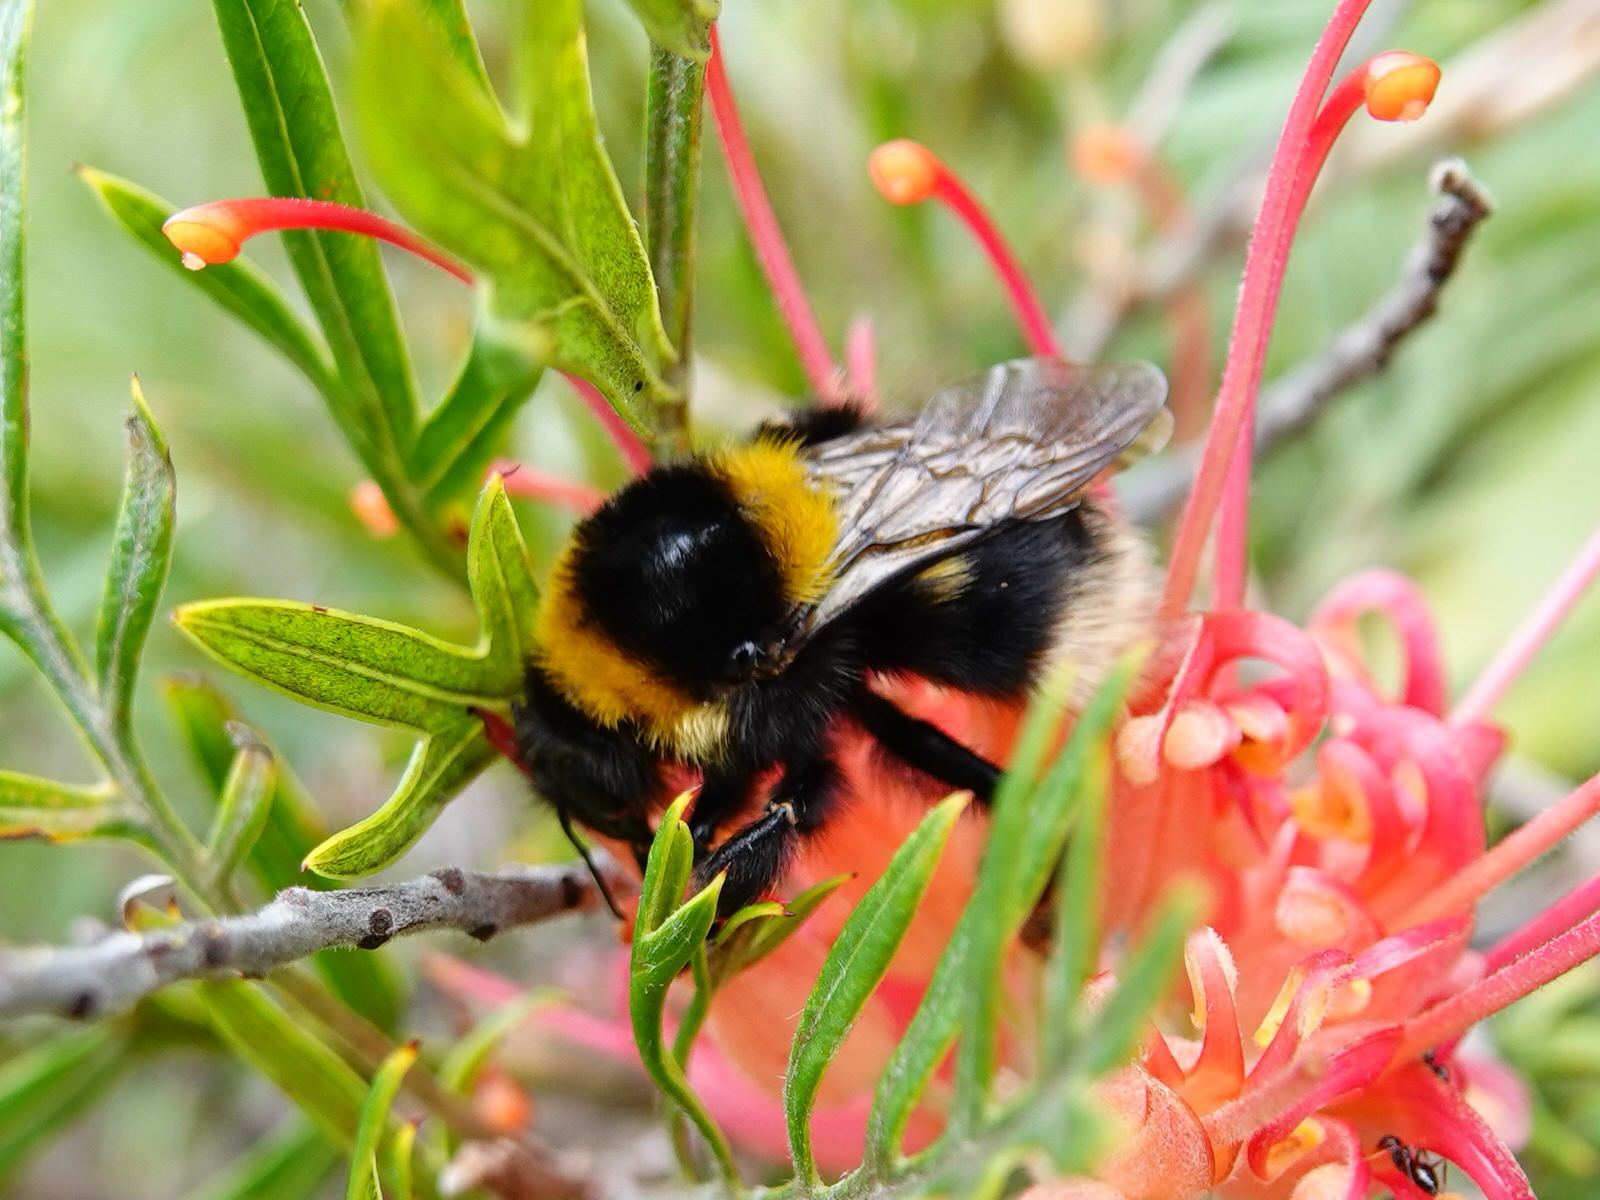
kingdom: Animalia
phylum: Arthropoda
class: Insecta
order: Hymenoptera
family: Apidae
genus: Megabombus
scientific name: Megabombus
